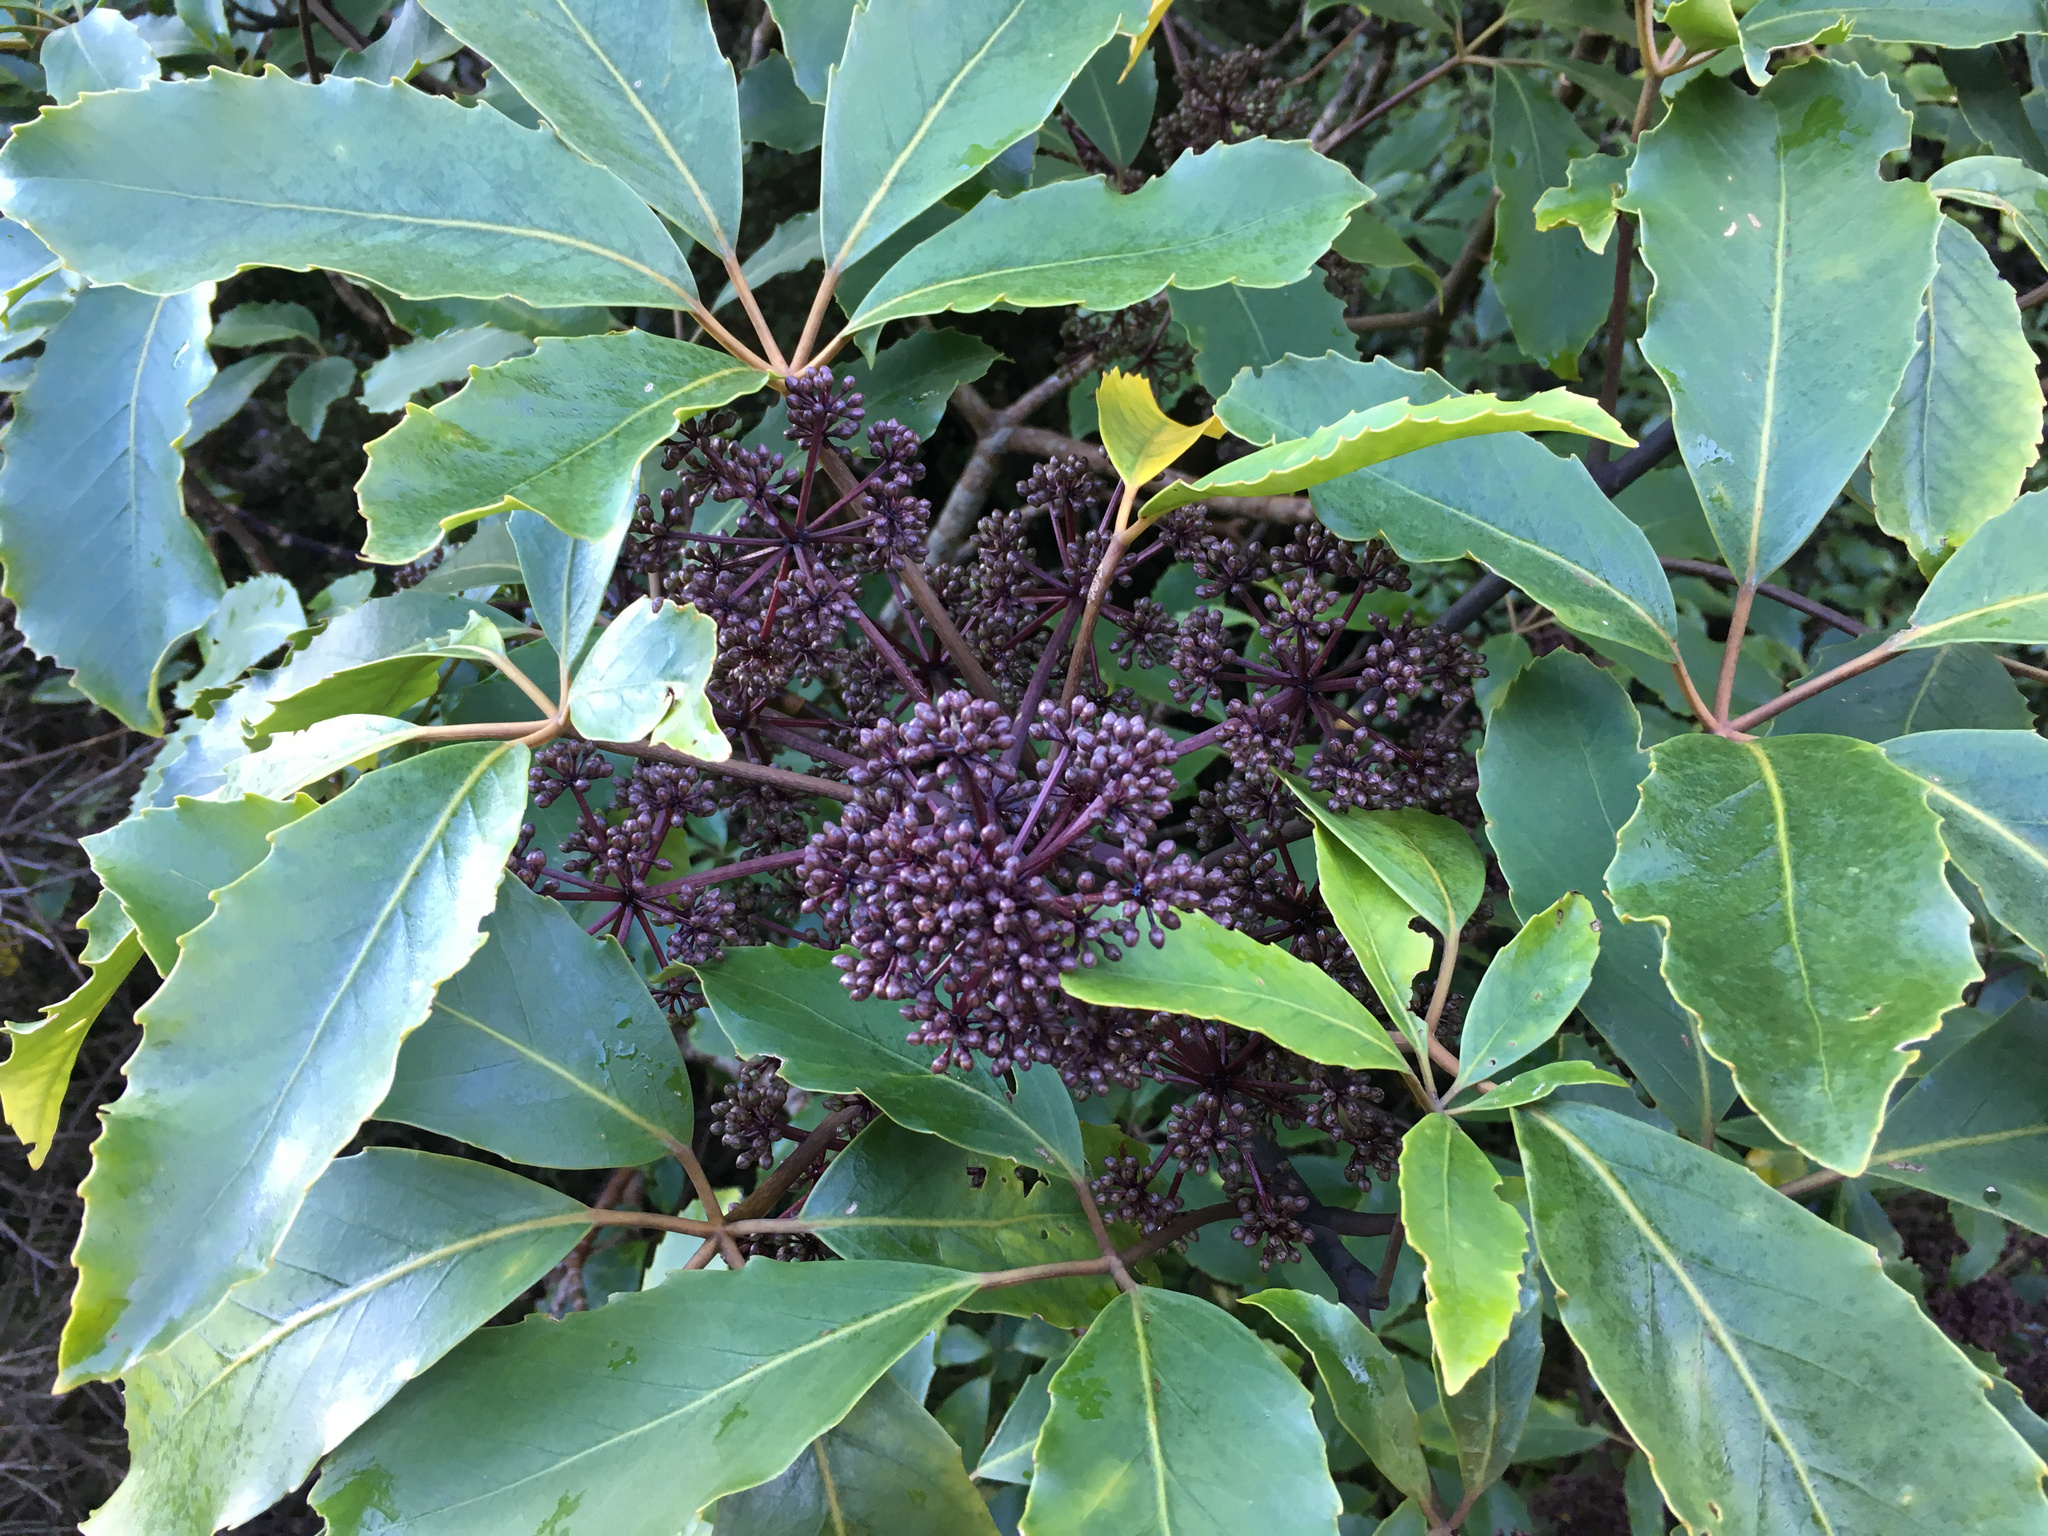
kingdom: Plantae
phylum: Tracheophyta
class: Magnoliopsida
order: Apiales
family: Araliaceae
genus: Neopanax
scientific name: Neopanax arboreus
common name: Five-fingers
